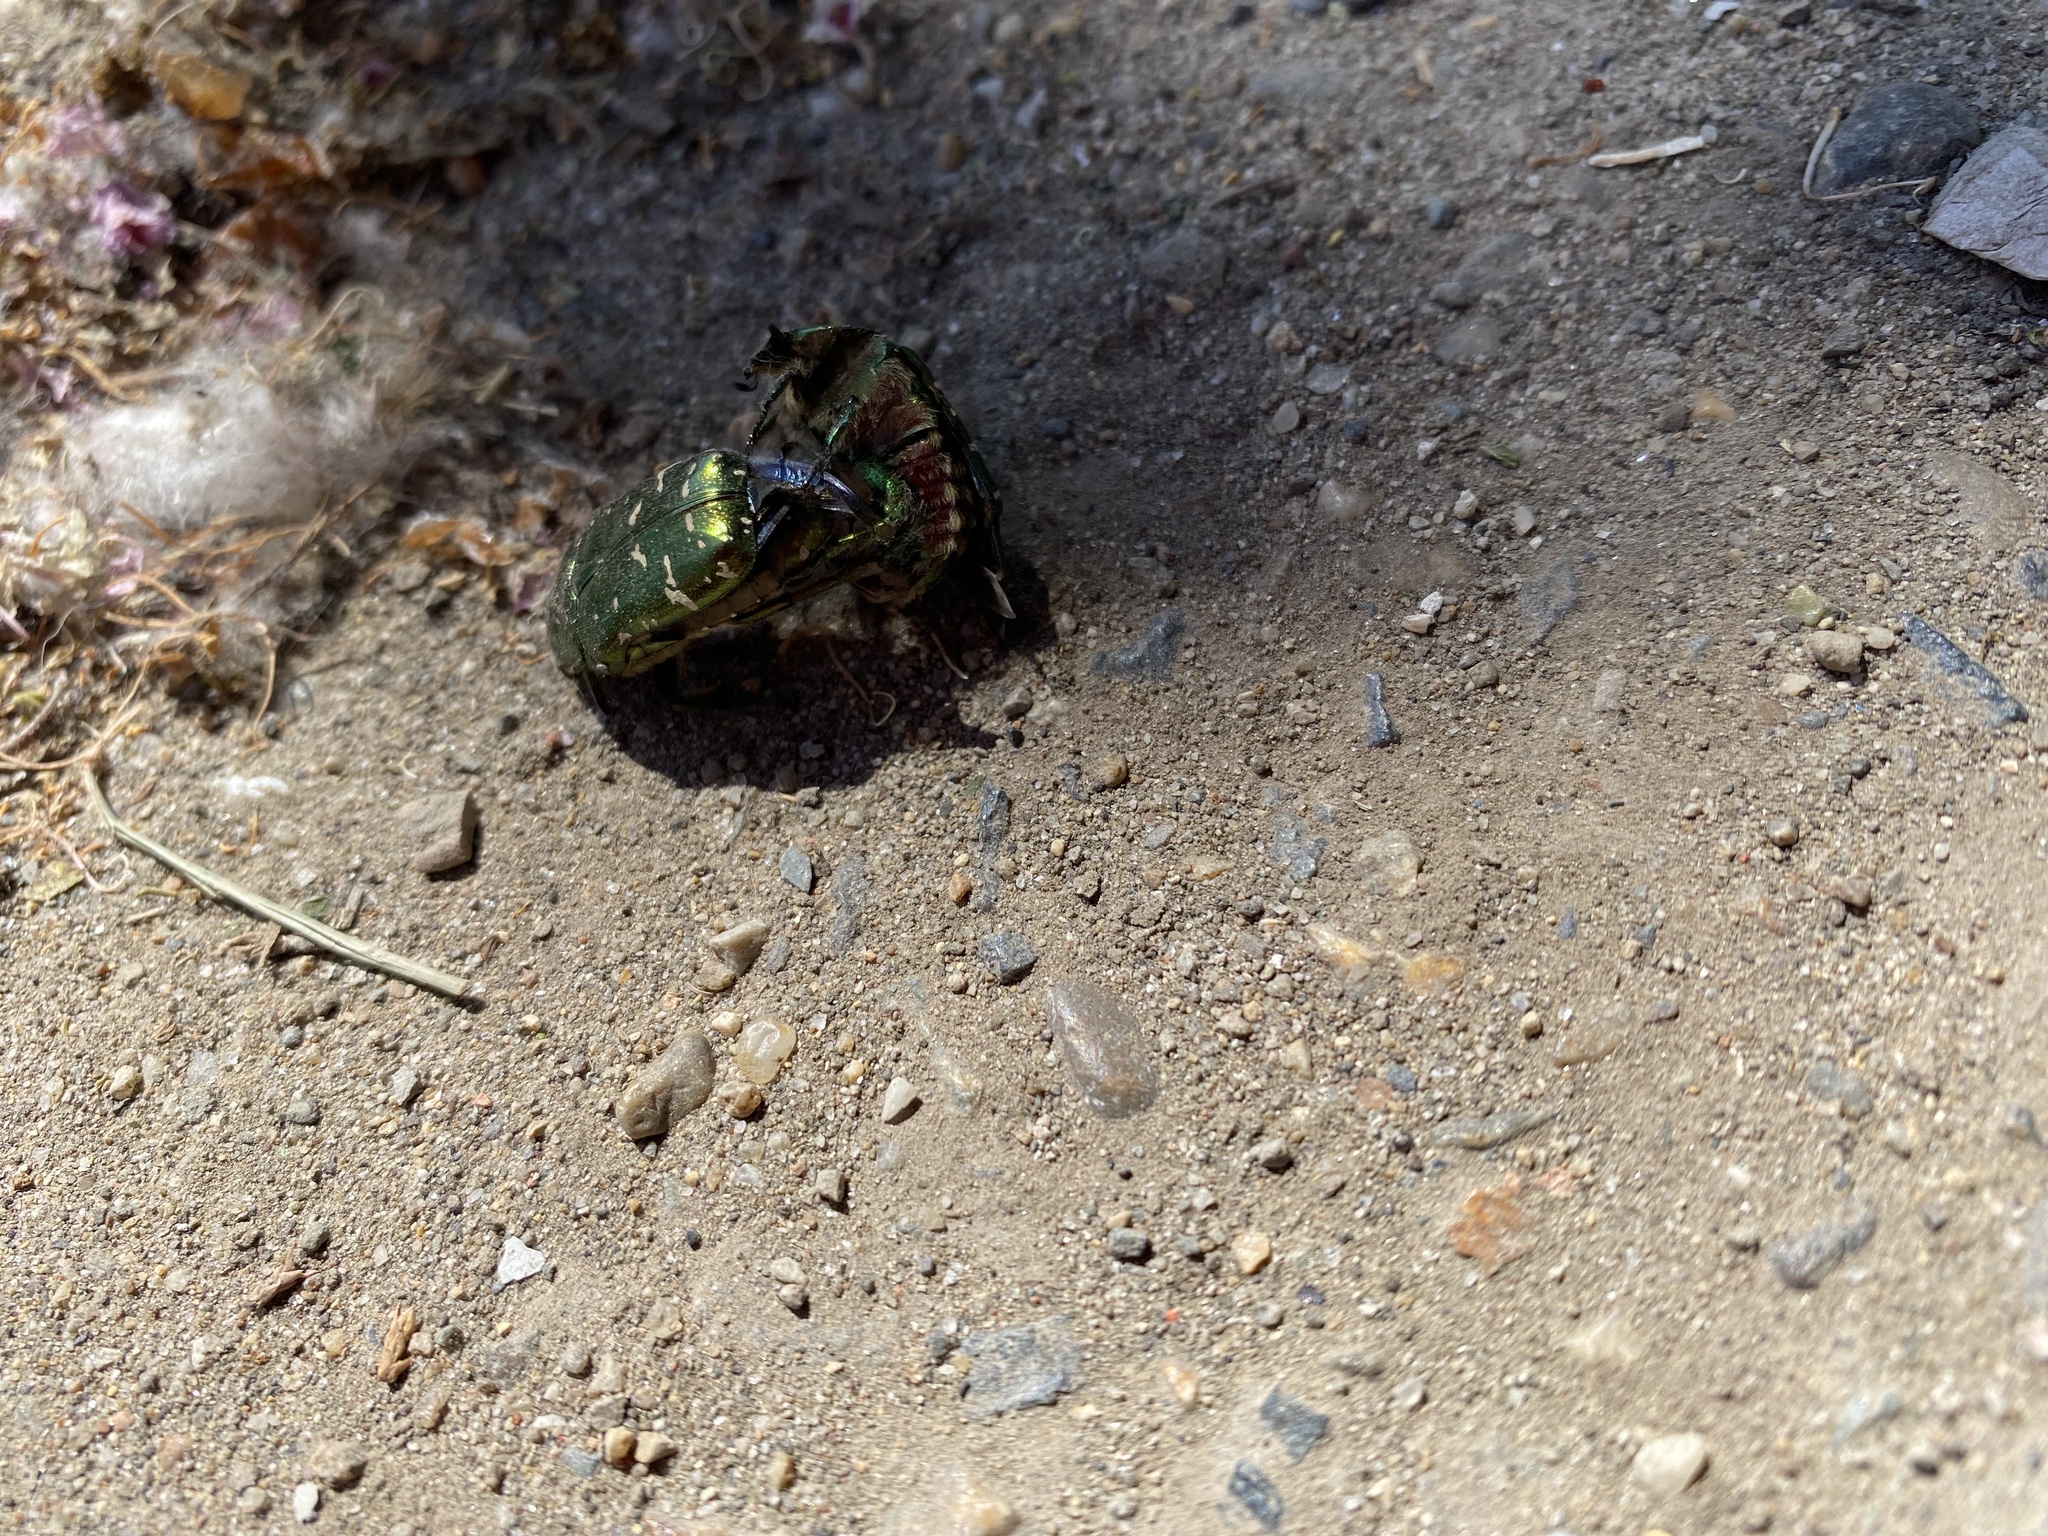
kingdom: Animalia
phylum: Arthropoda
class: Insecta
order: Coleoptera
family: Scarabaeidae
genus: Cetonia
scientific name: Cetonia aurata
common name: Rose chafer
